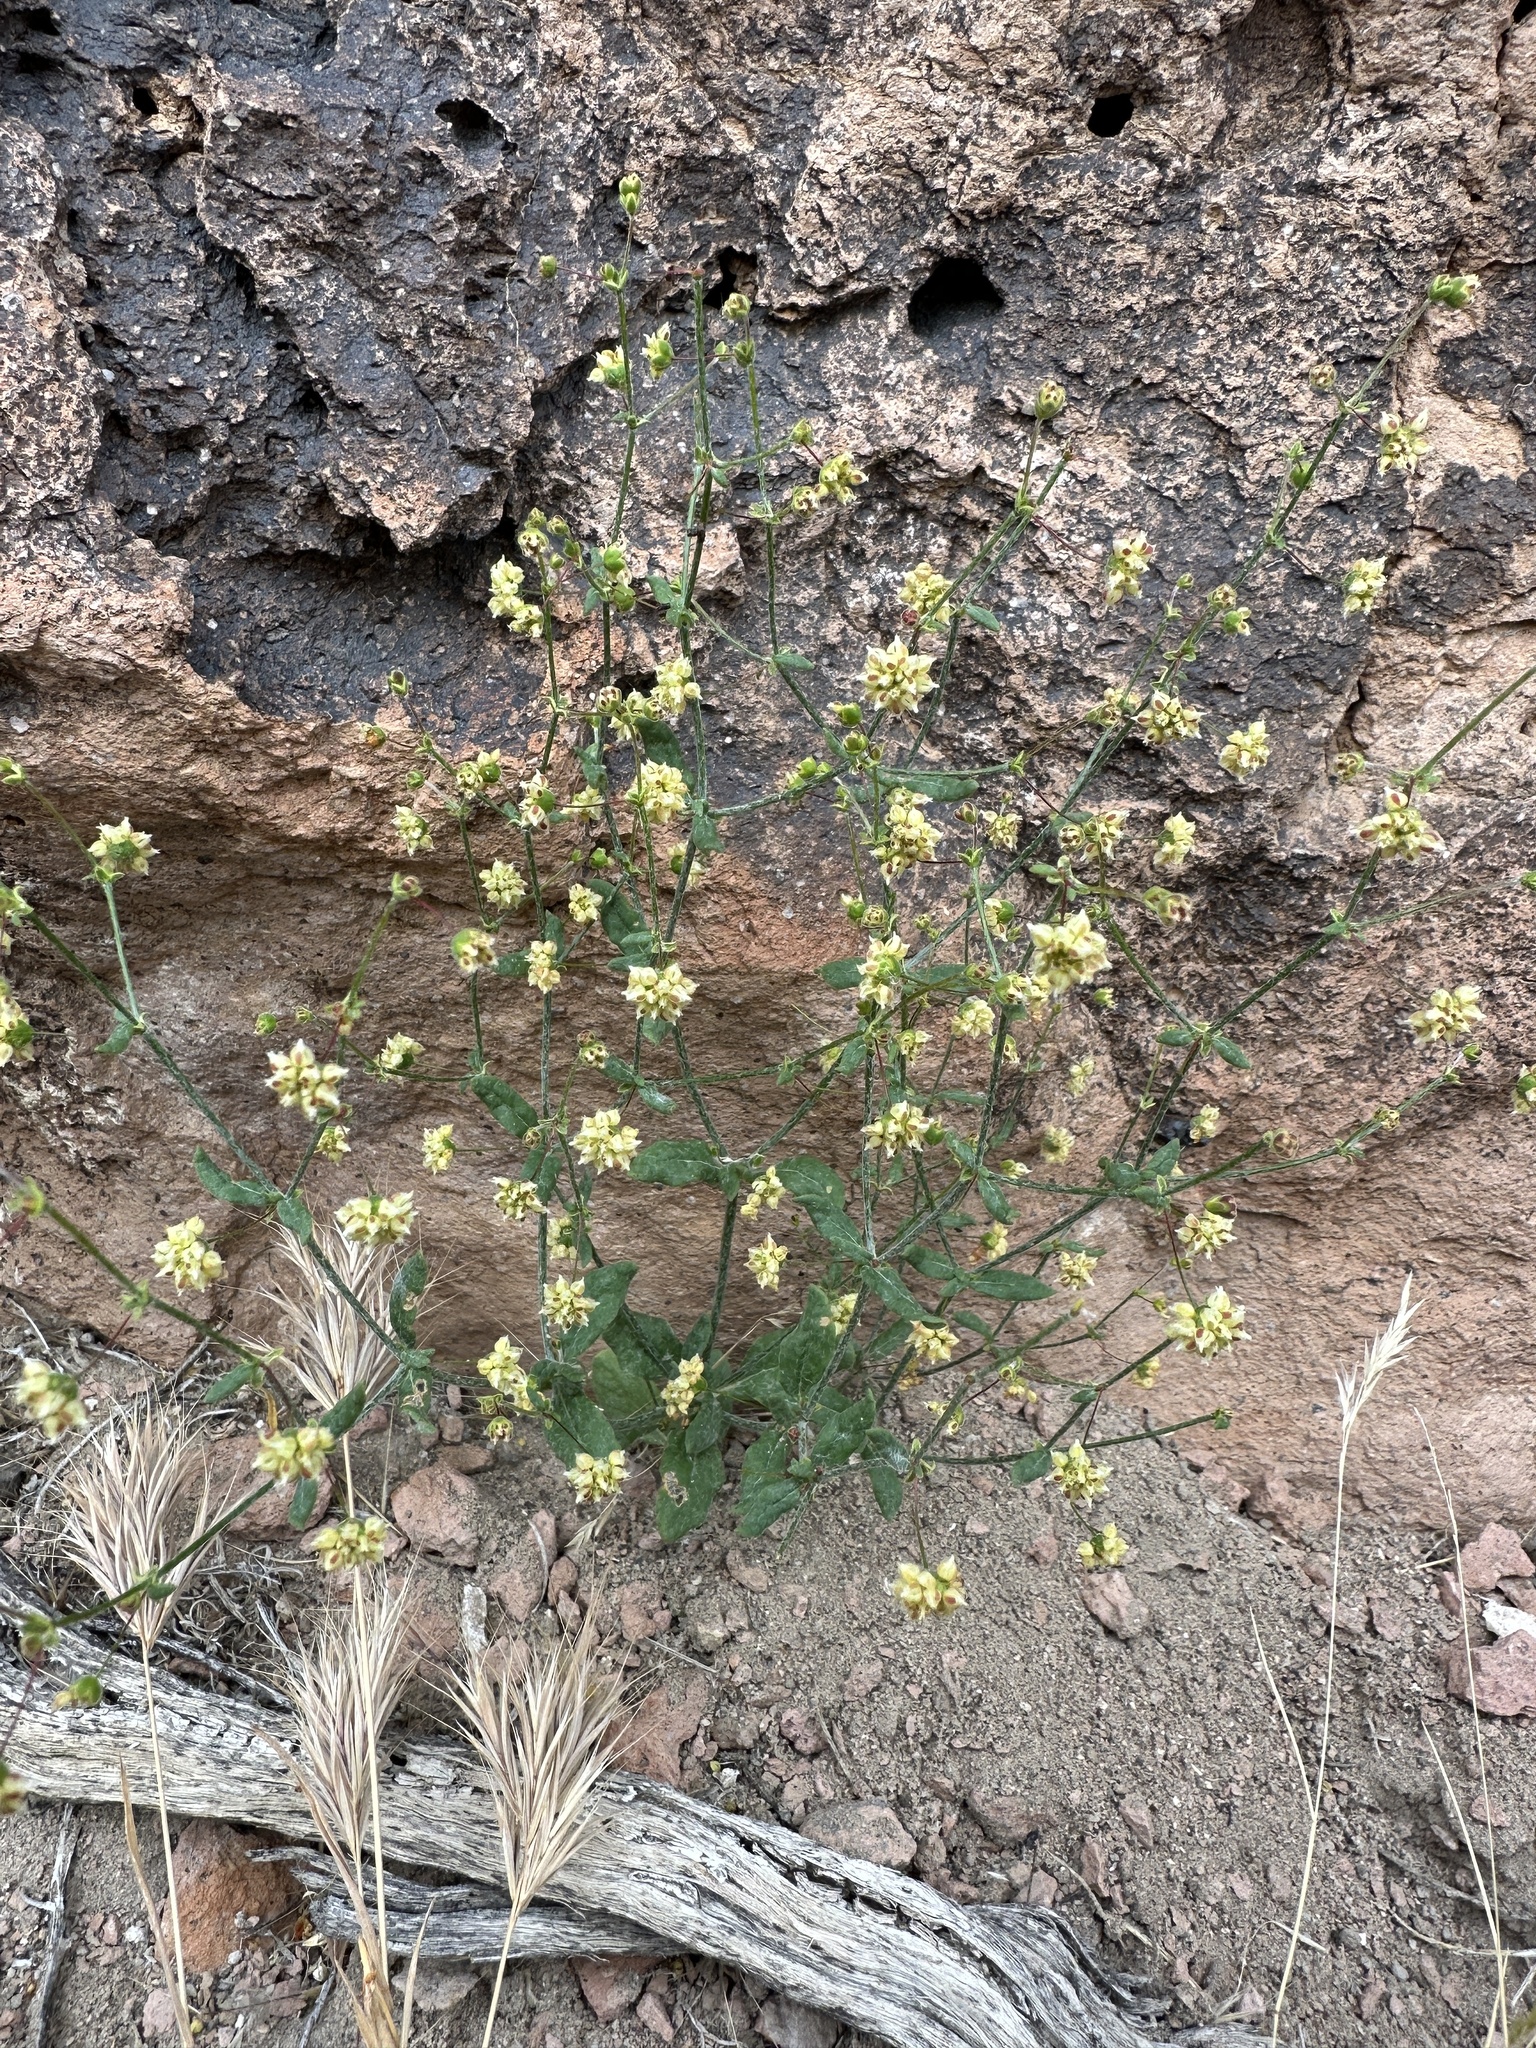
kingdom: Plantae
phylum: Tracheophyta
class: Magnoliopsida
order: Caryophyllales
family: Polygonaceae
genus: Eriogonum
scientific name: Eriogonum maculatum
